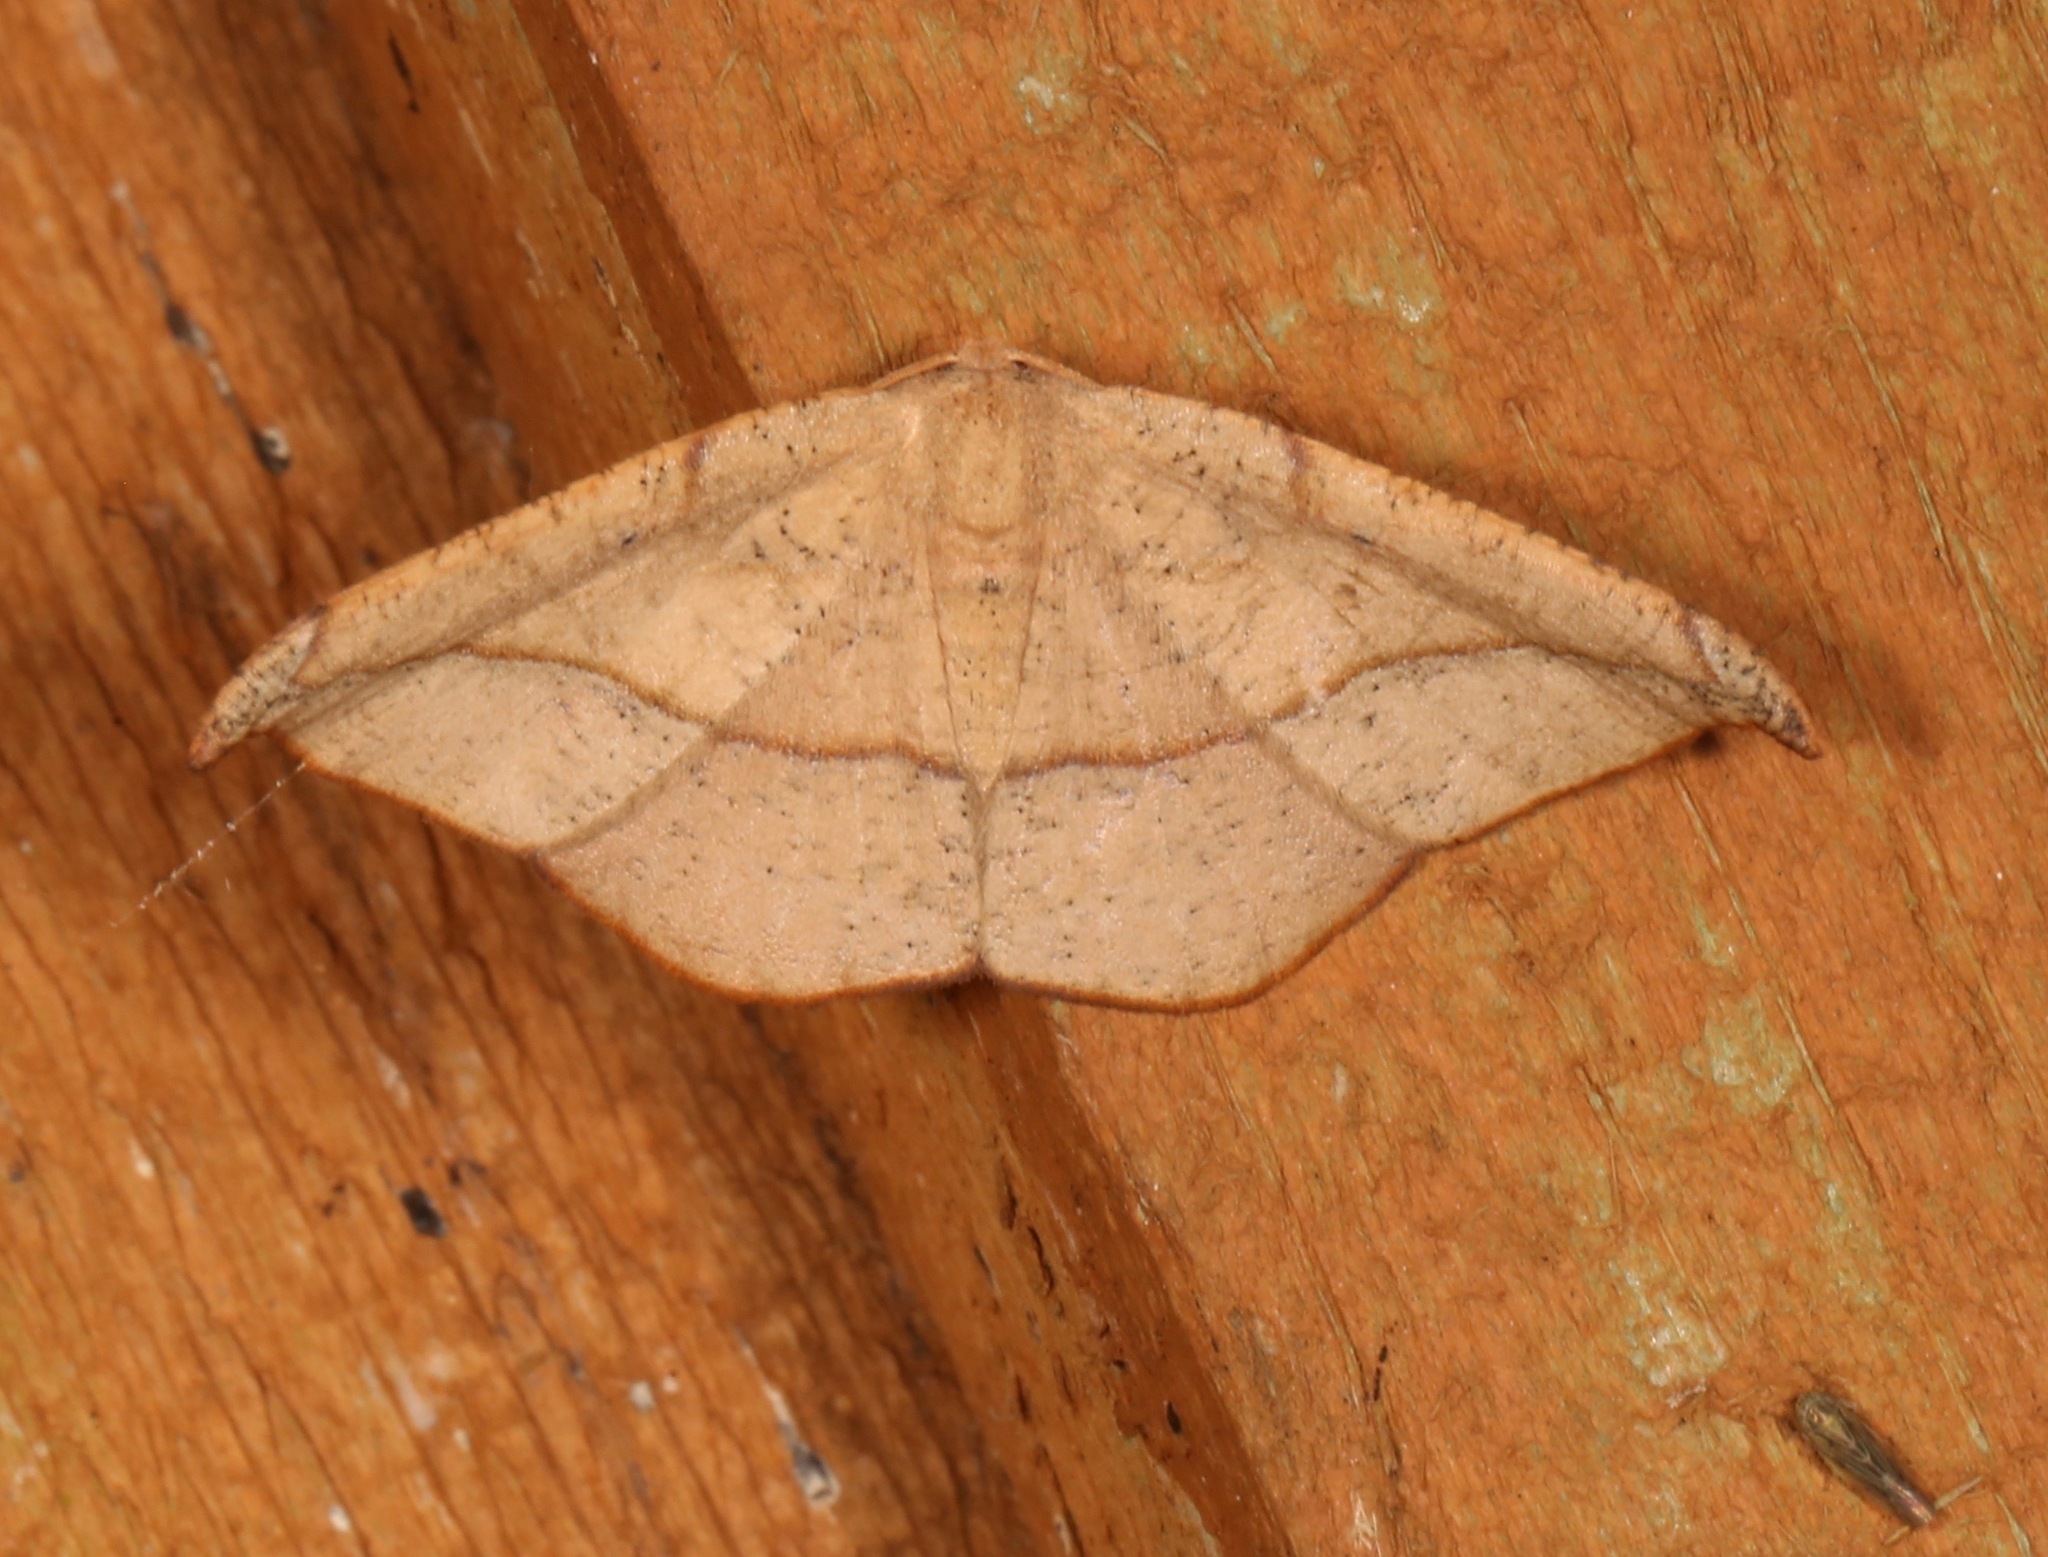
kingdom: Animalia
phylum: Arthropoda
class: Insecta
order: Lepidoptera
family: Geometridae
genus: Patalene
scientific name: Patalene olyzonaria
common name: Juniper geometer moth
